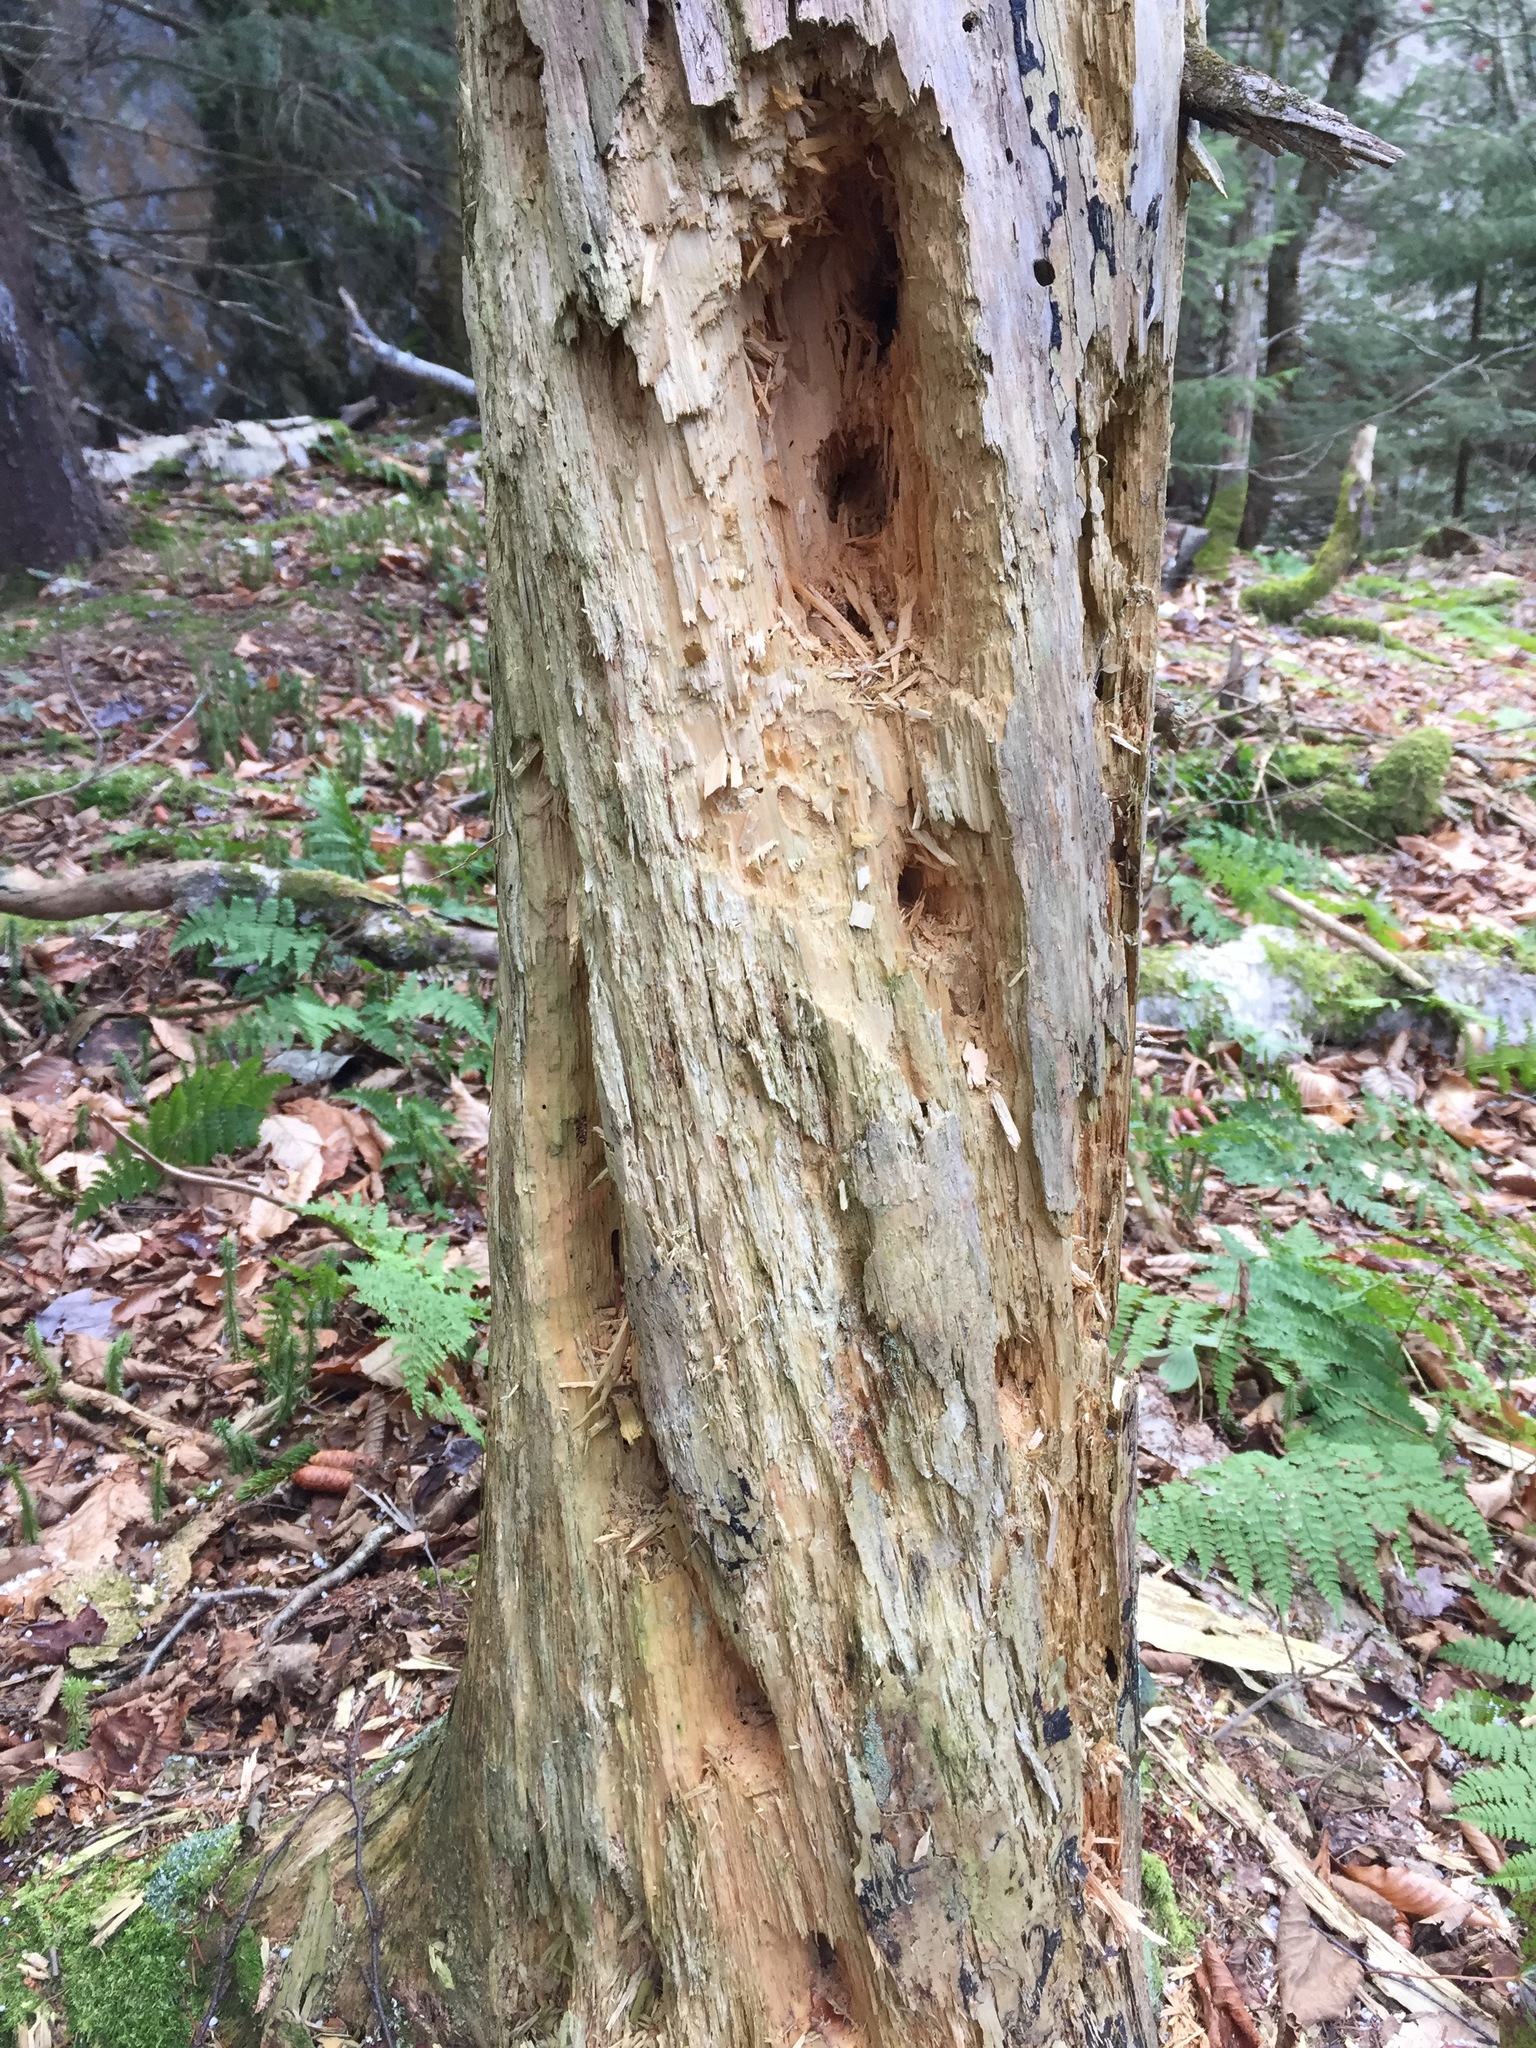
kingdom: Animalia
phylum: Chordata
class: Aves
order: Piciformes
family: Picidae
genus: Dryocopus
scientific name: Dryocopus pileatus
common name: Pileated woodpecker
